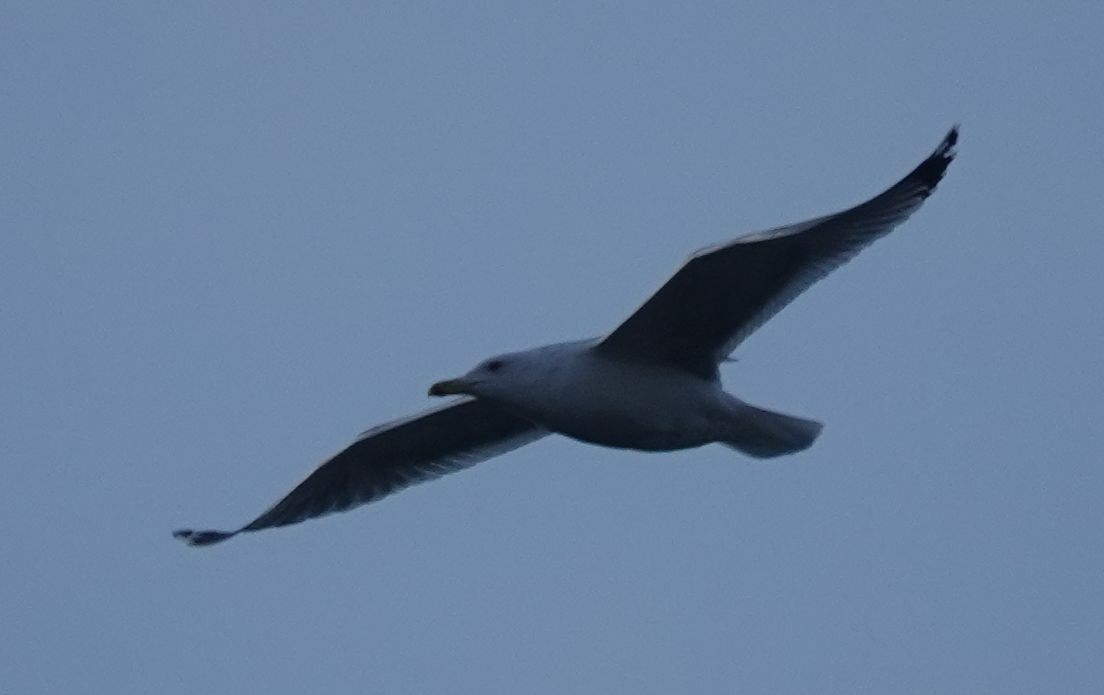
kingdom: Animalia
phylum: Chordata
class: Aves
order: Charadriiformes
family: Laridae
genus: Larus
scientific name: Larus cachinnans
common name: Caspian gull
